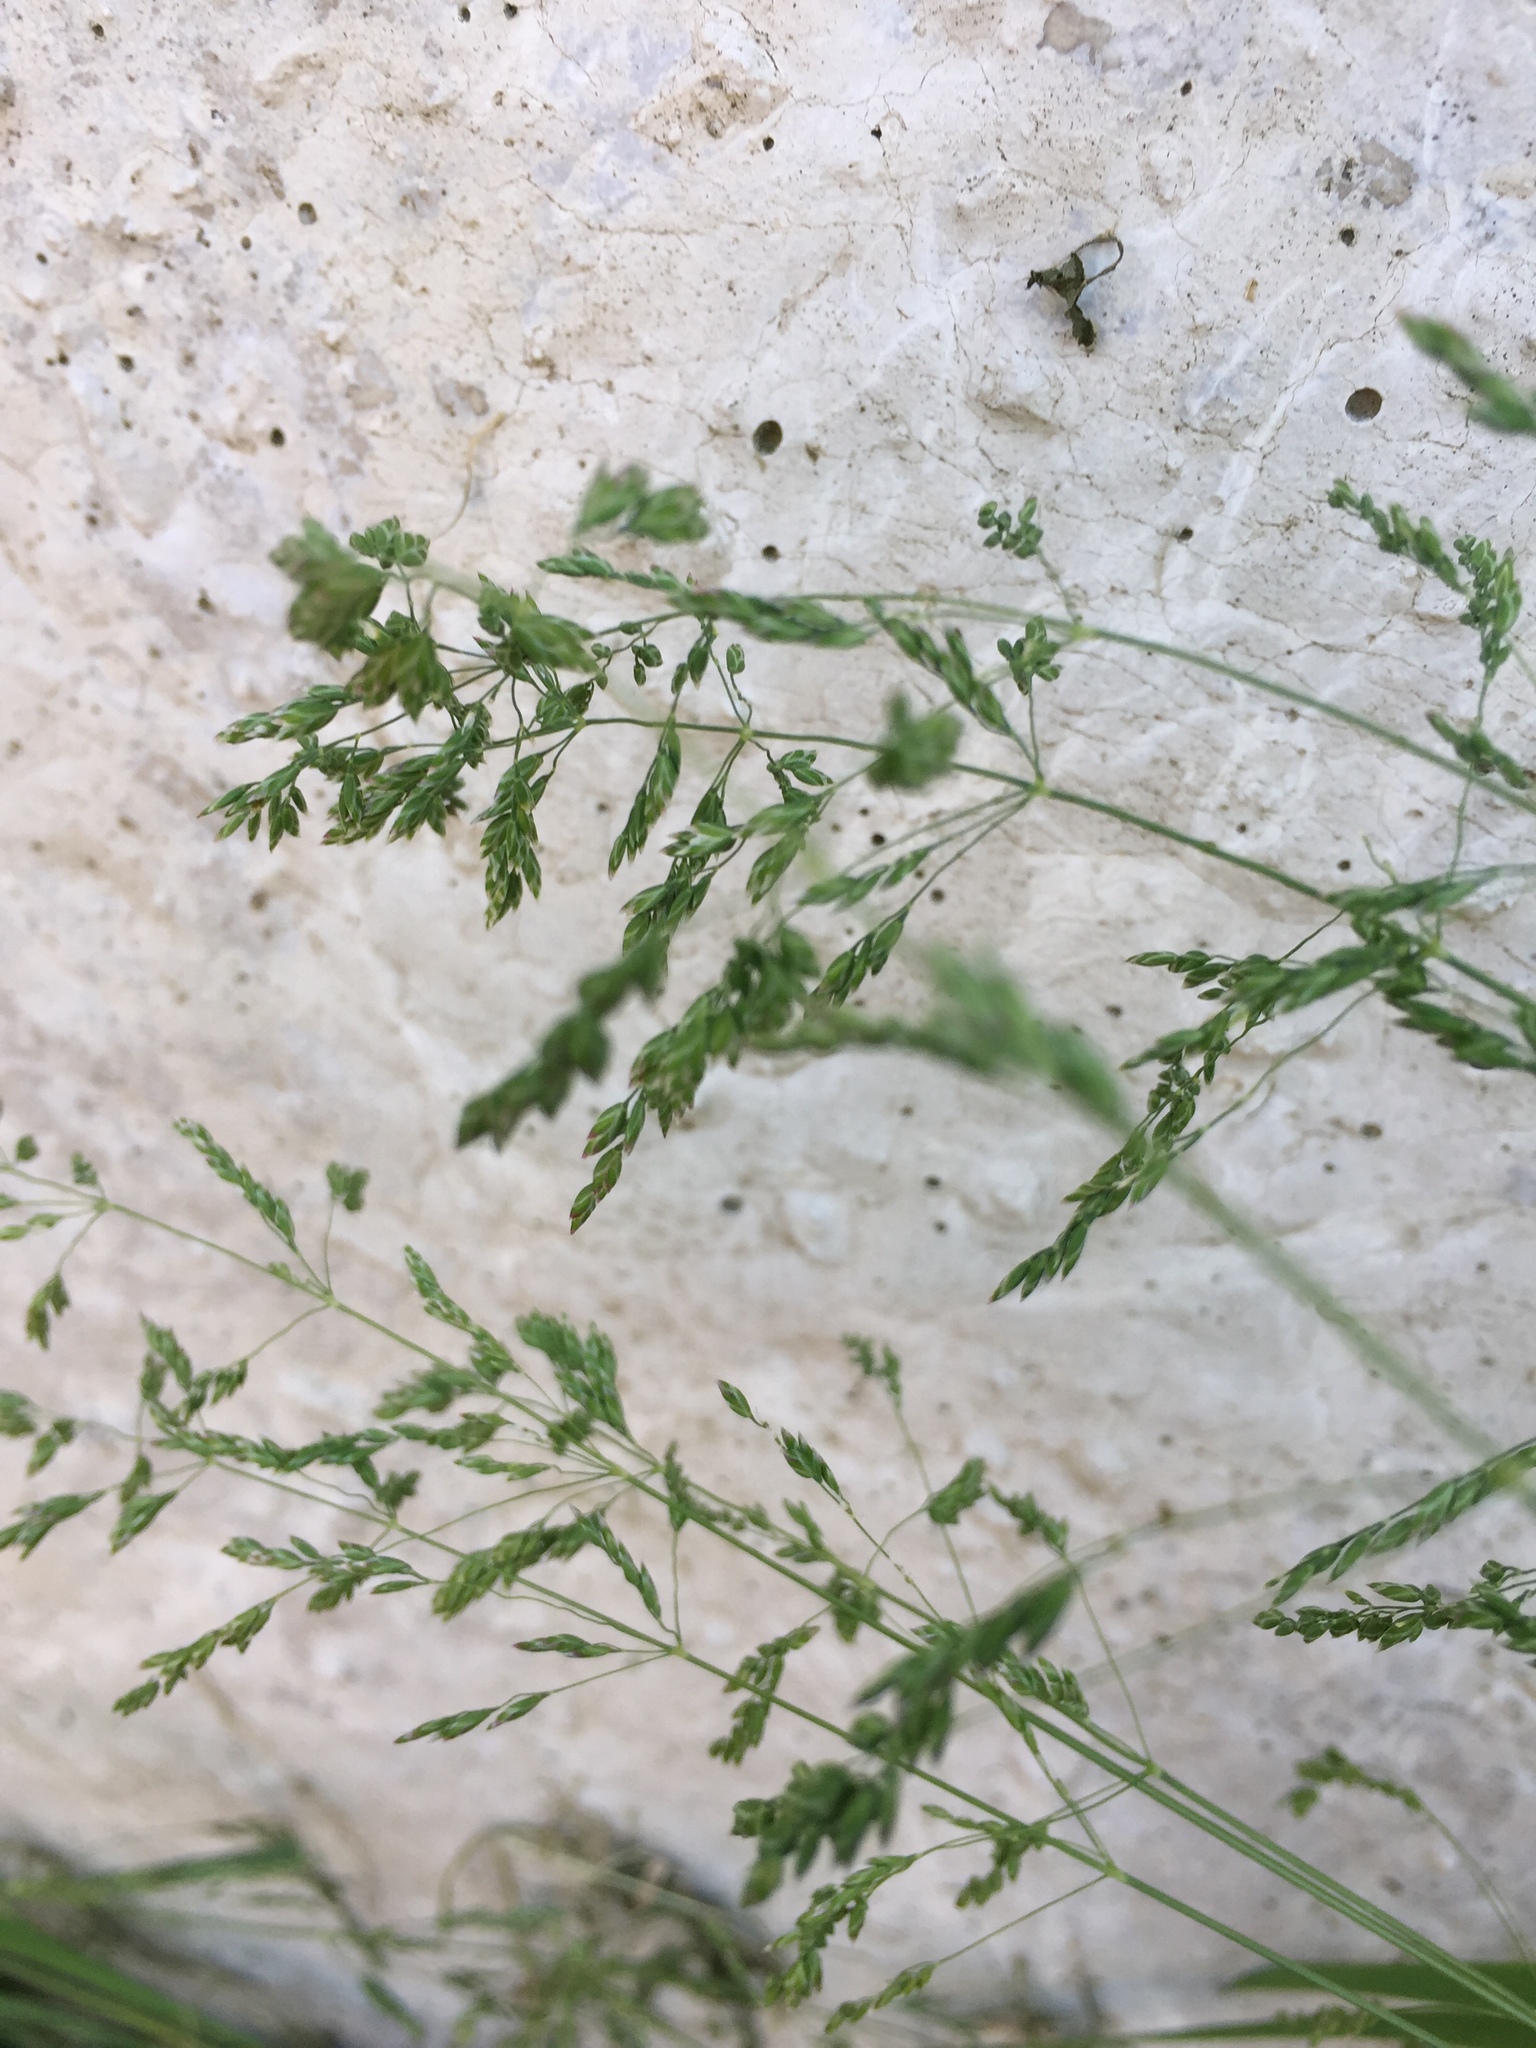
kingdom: Plantae
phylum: Tracheophyta
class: Liliopsida
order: Poales
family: Poaceae
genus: Poa
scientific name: Poa pratensis
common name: Kentucky bluegrass
